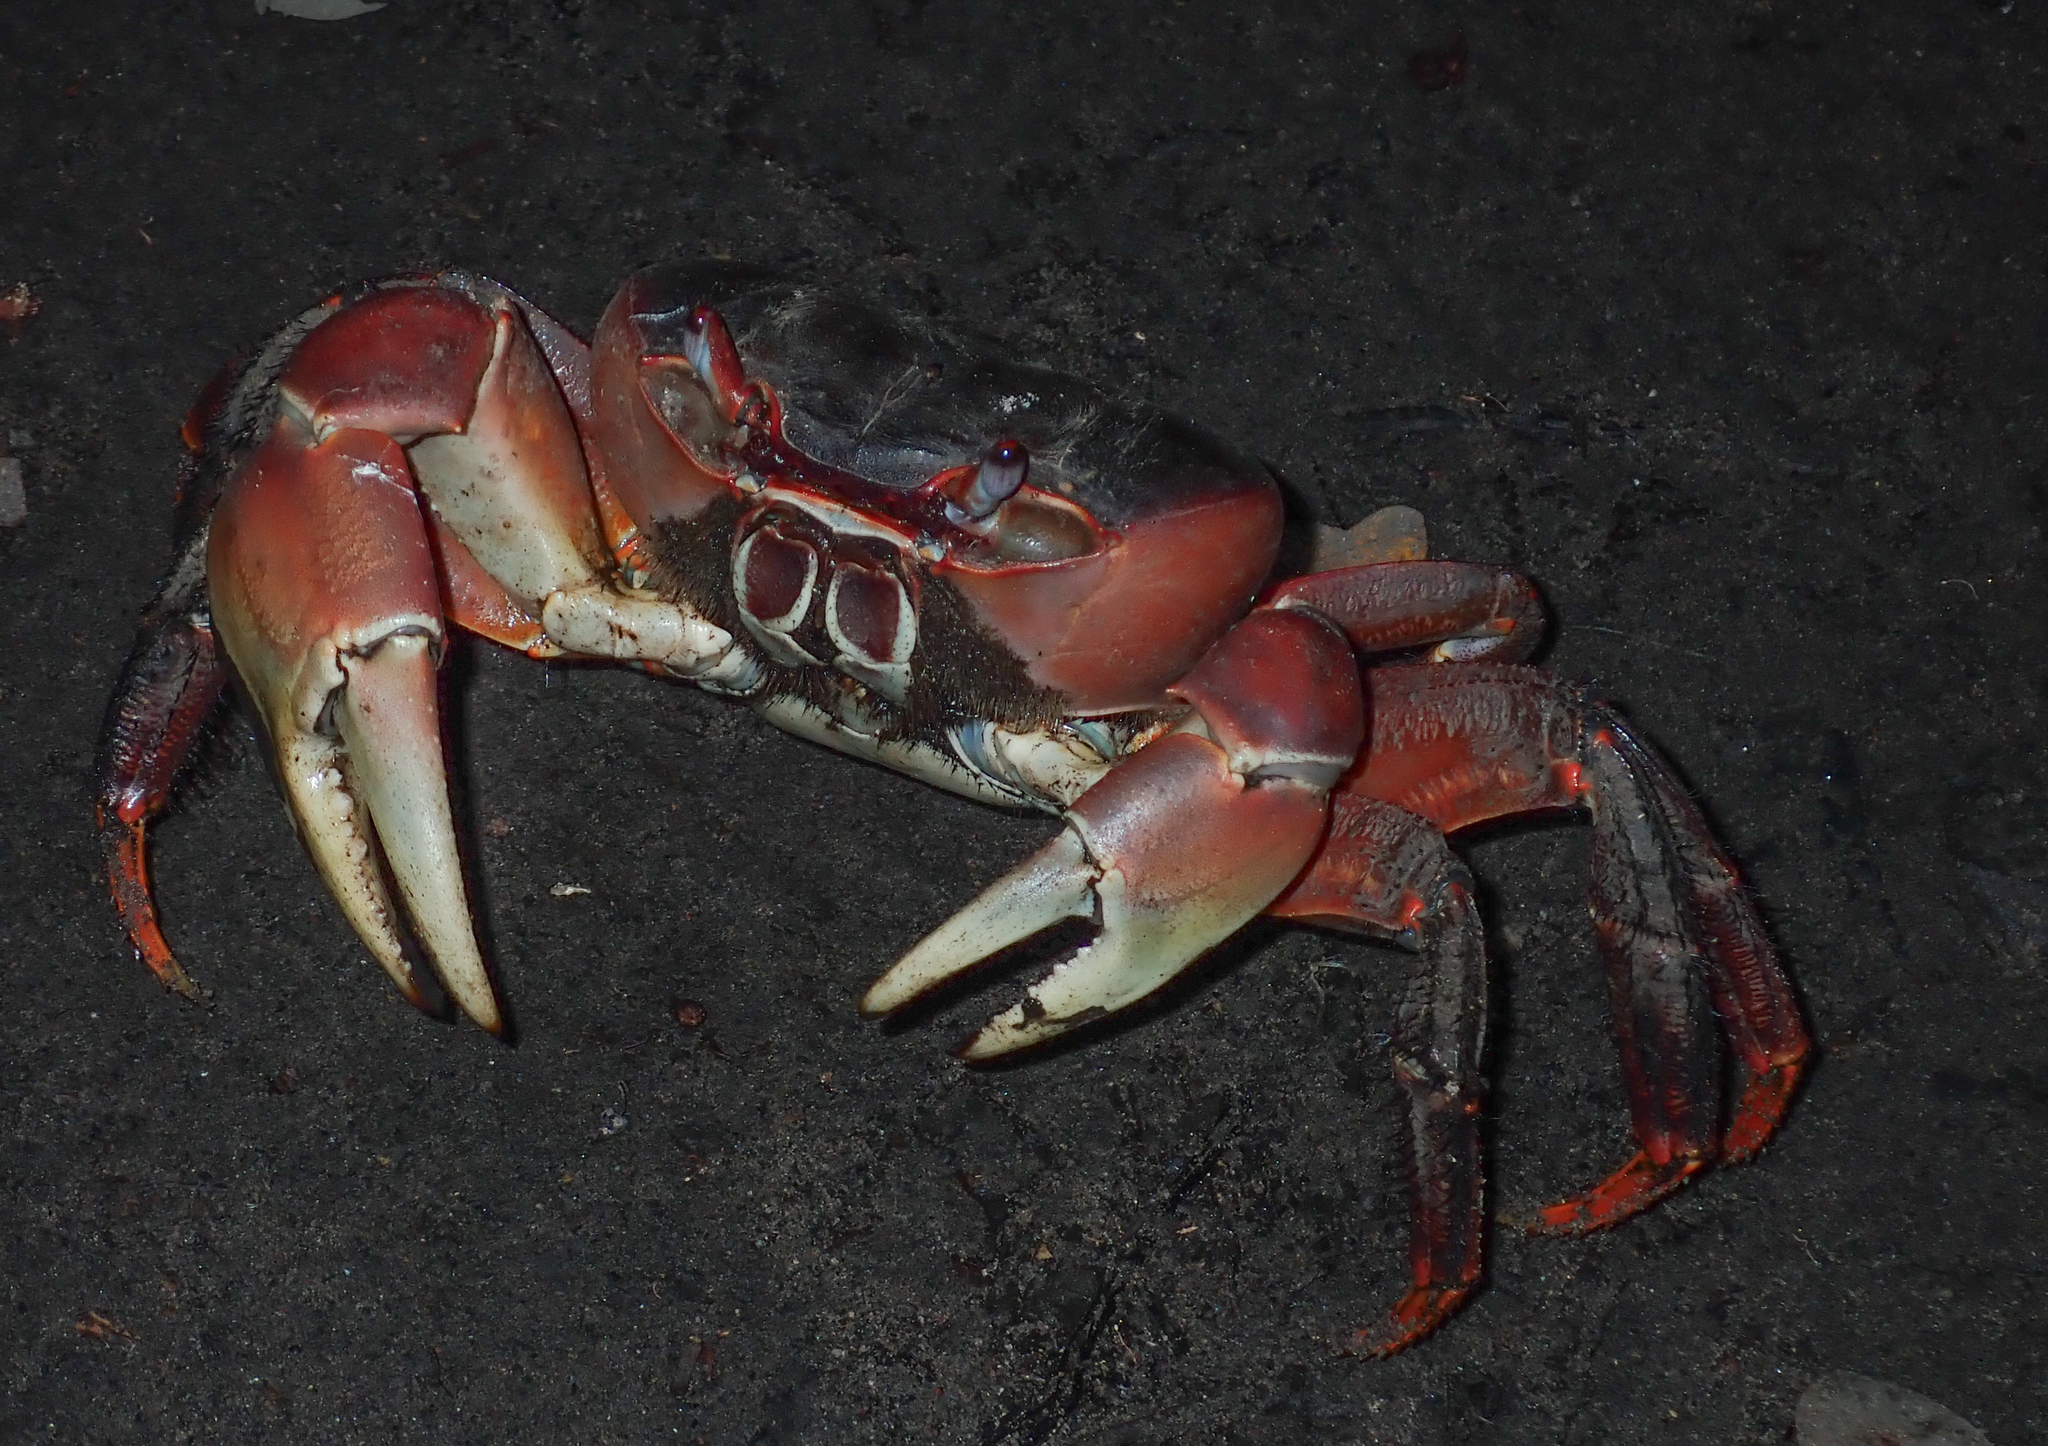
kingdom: Animalia
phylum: Arthropoda
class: Malacostraca
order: Decapoda
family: Gecarcinidae
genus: Cardisoma
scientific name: Cardisoma carnifex
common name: Brown land crab
